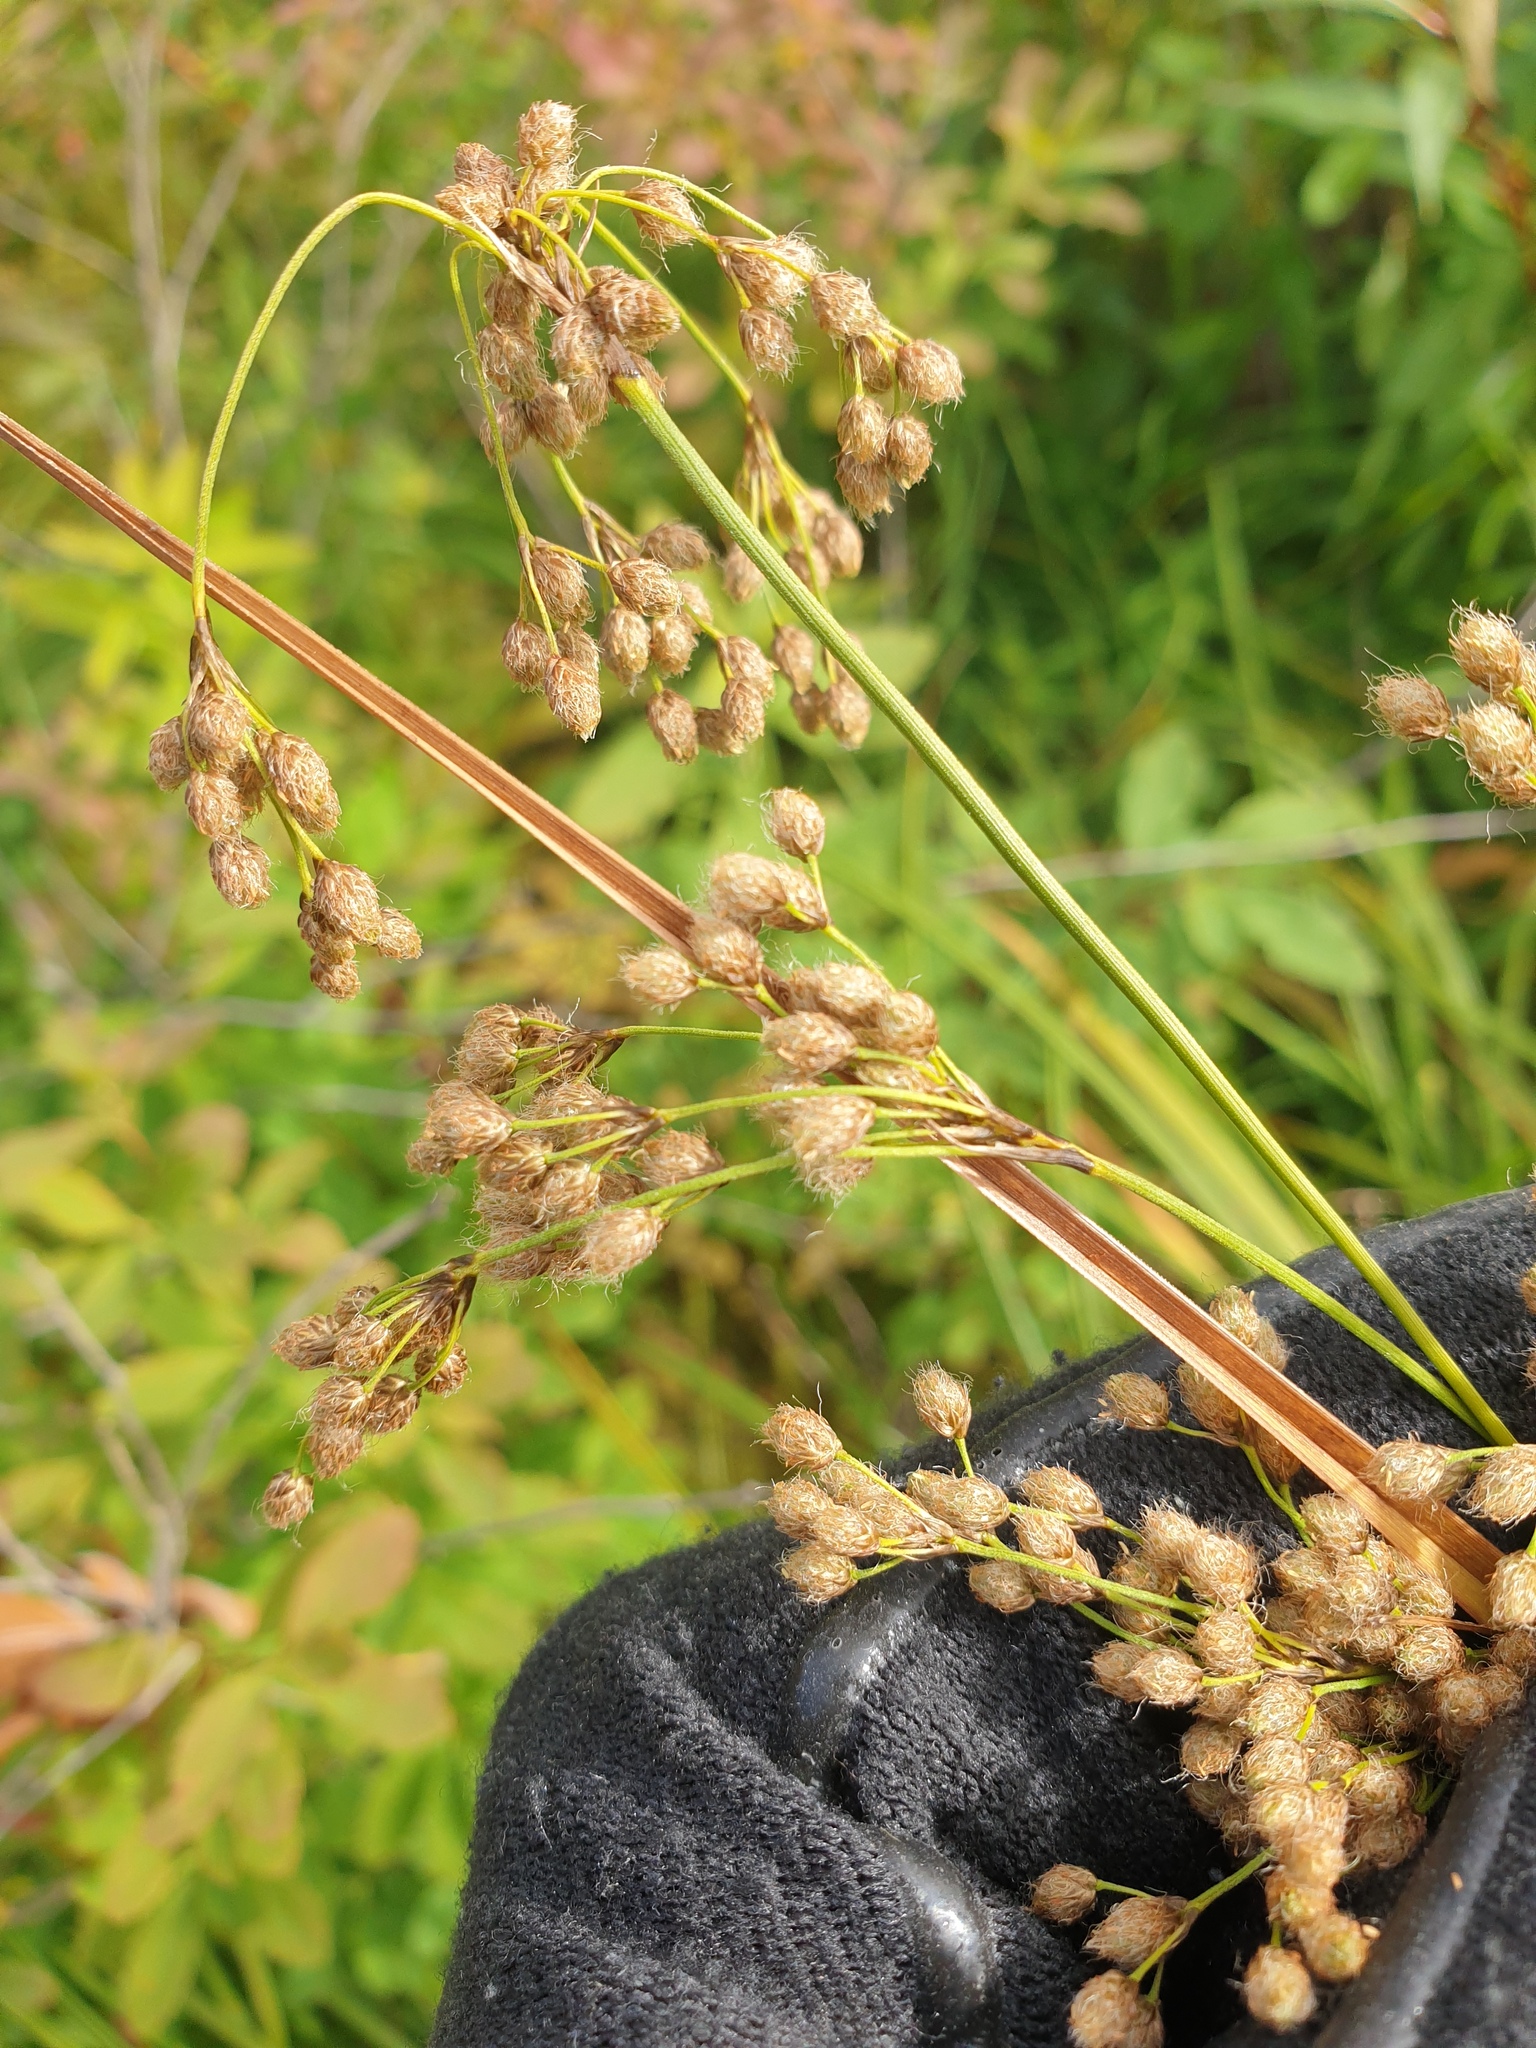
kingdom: Plantae
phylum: Tracheophyta
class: Liliopsida
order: Poales
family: Cyperaceae
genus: Scirpus
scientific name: Scirpus atrocinctus
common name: Black-girdled bulrush
